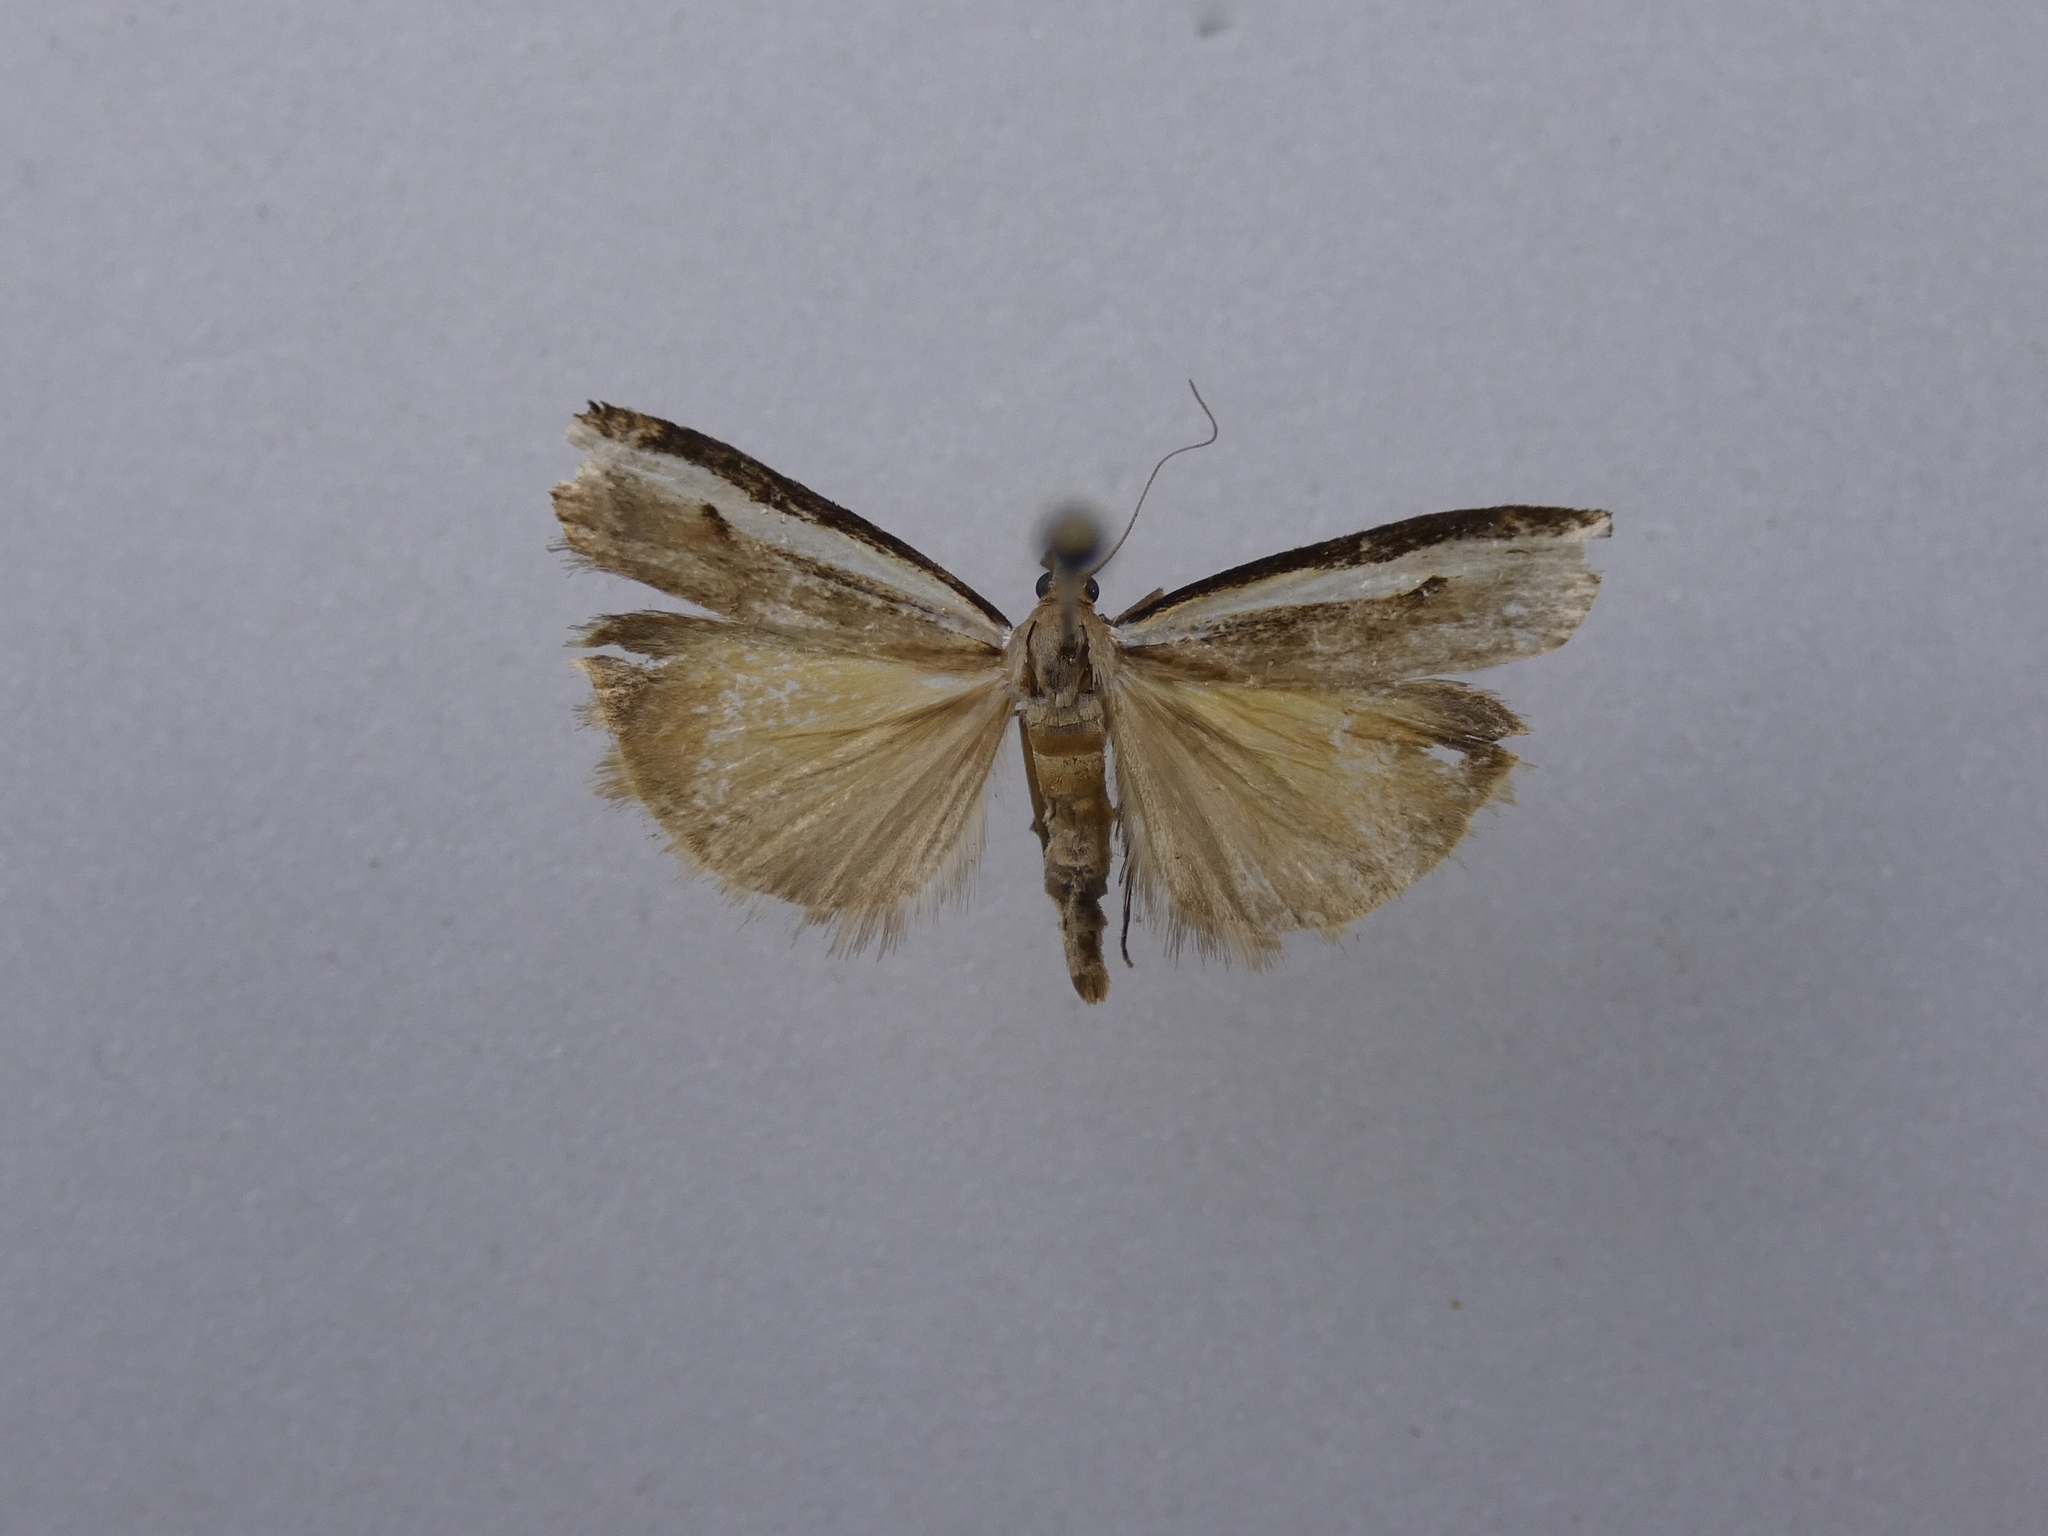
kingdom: Animalia
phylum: Arthropoda
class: Insecta
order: Lepidoptera
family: Crambidae
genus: Orocrambus
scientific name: Orocrambus flexuosellus
